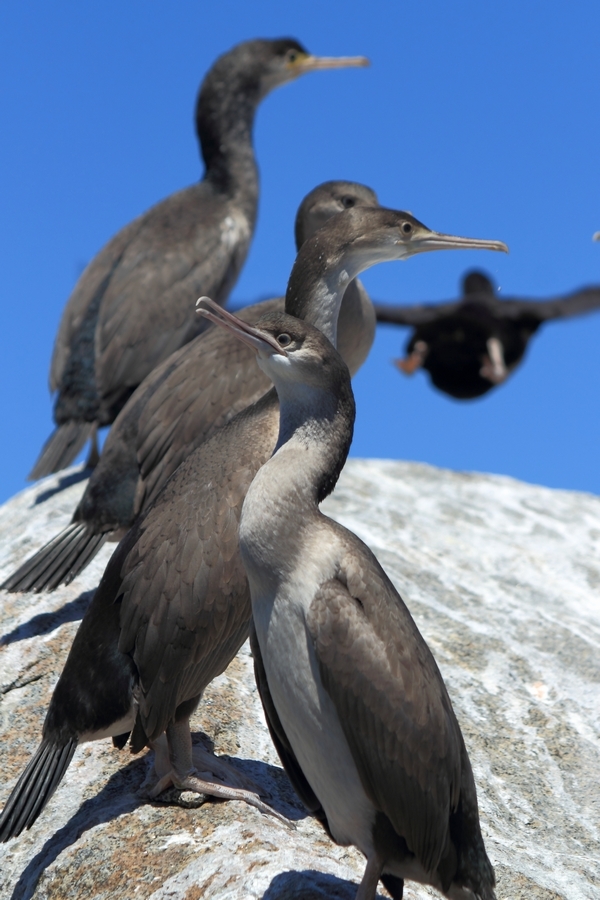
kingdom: Animalia
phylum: Chordata
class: Aves
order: Suliformes
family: Phalacrocoracidae
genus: Leucocarbo
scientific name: Leucocarbo chalconotus
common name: Stewart shag
